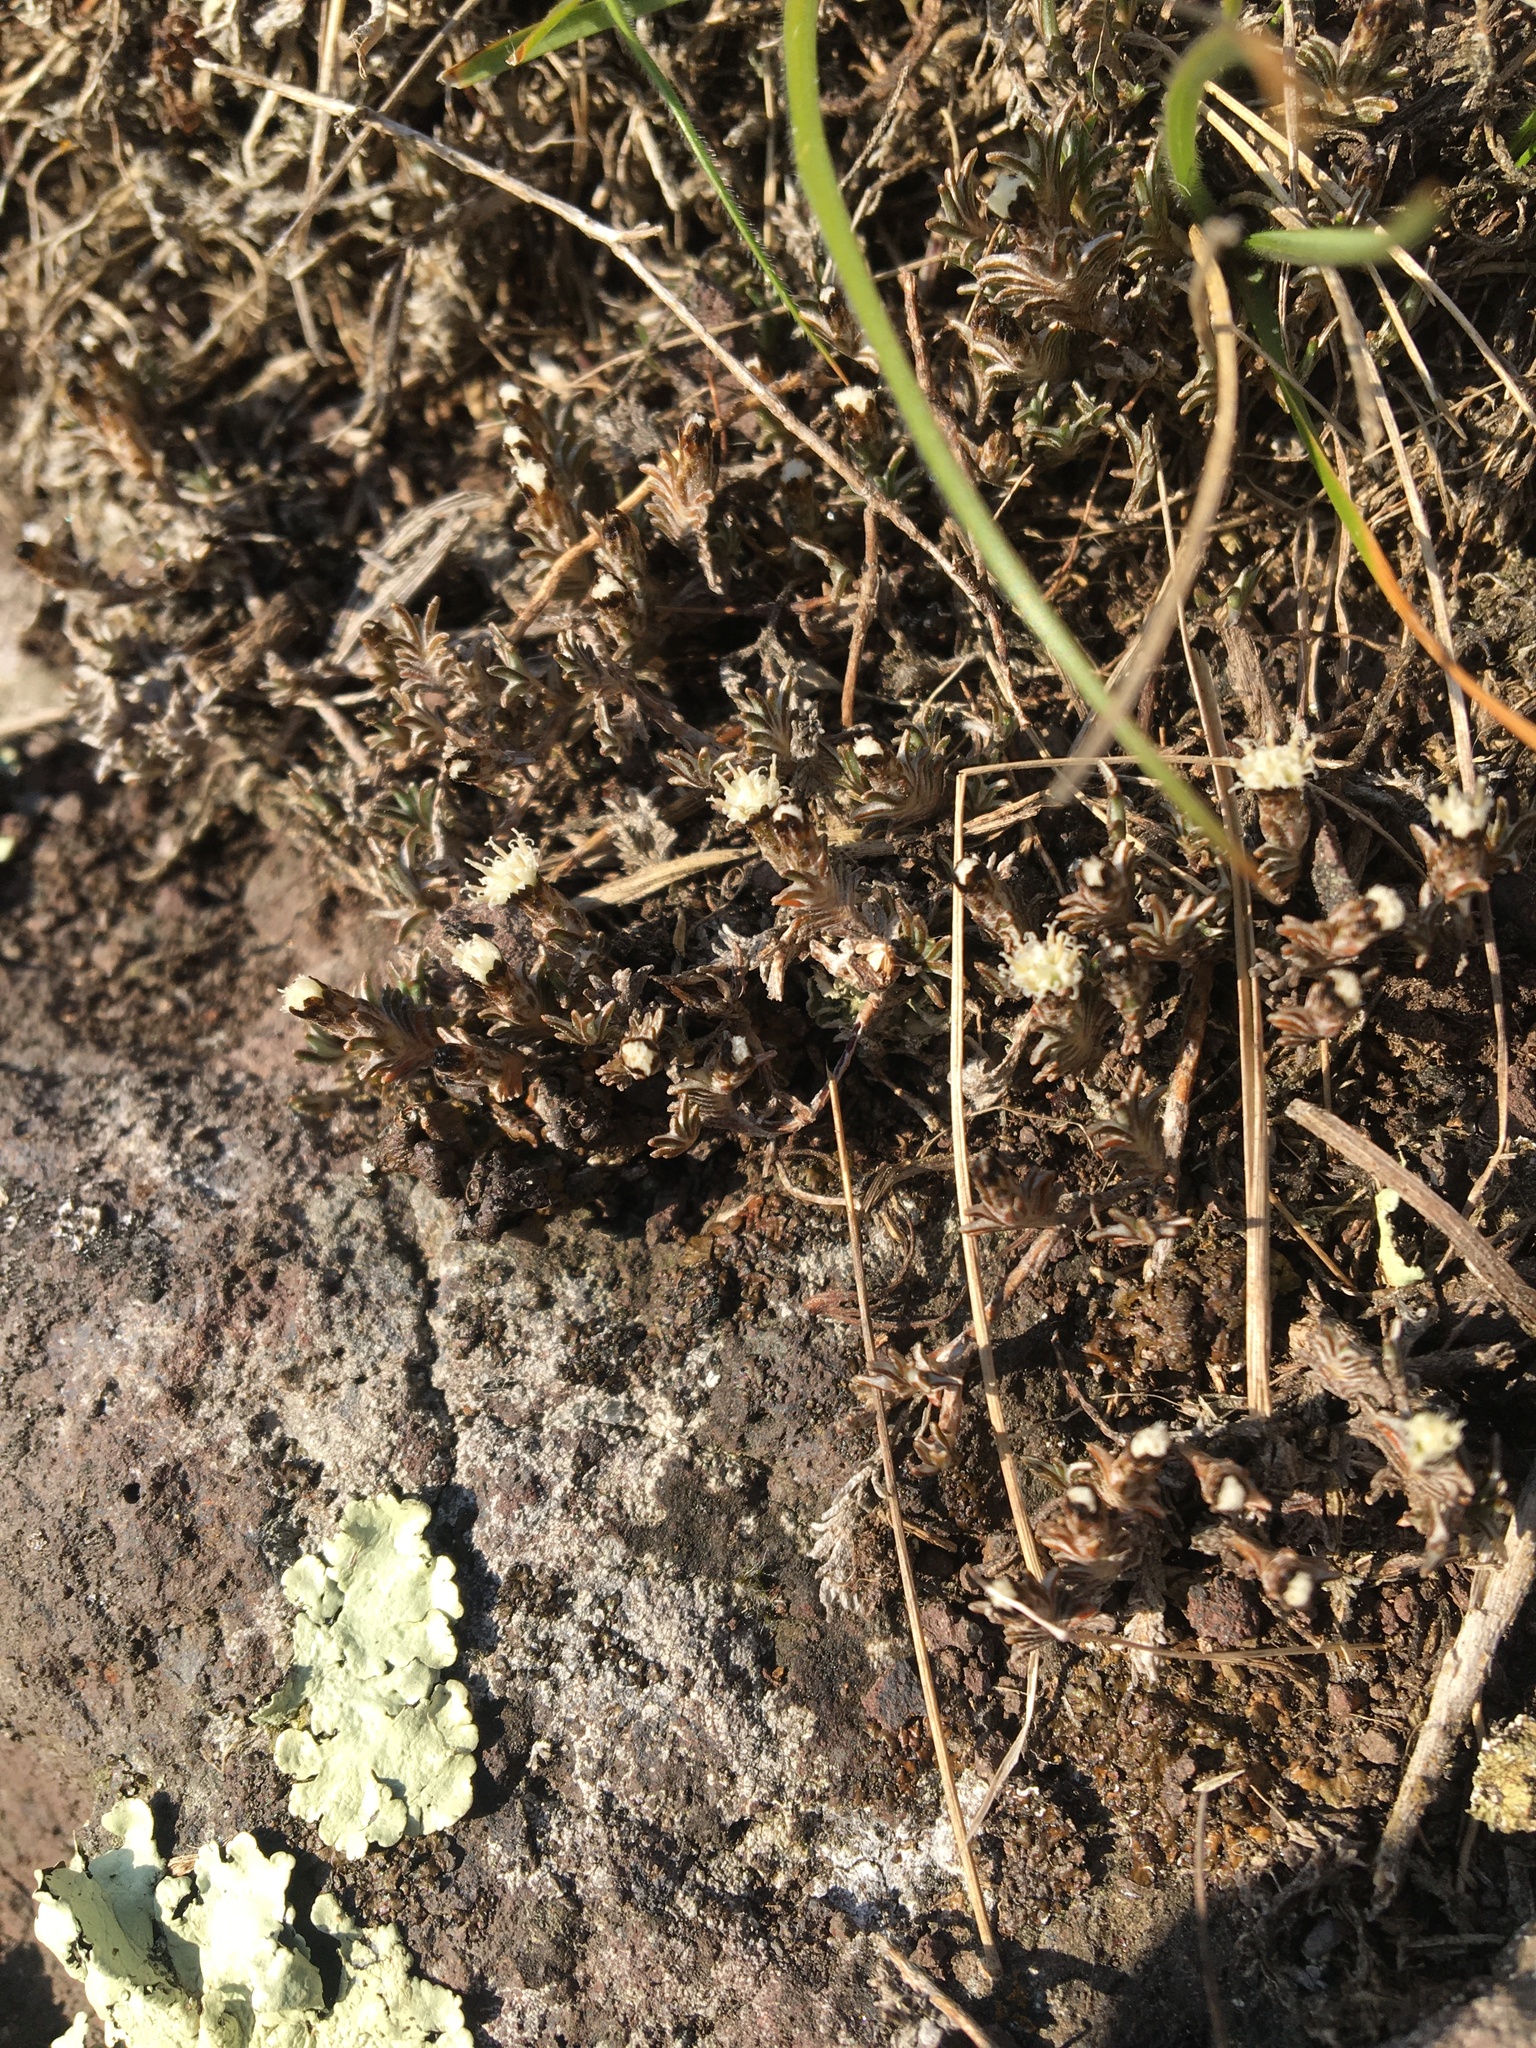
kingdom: Plantae
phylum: Tracheophyta
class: Magnoliopsida
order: Asterales
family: Asteraceae
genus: Raoulia
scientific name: Raoulia monroi
